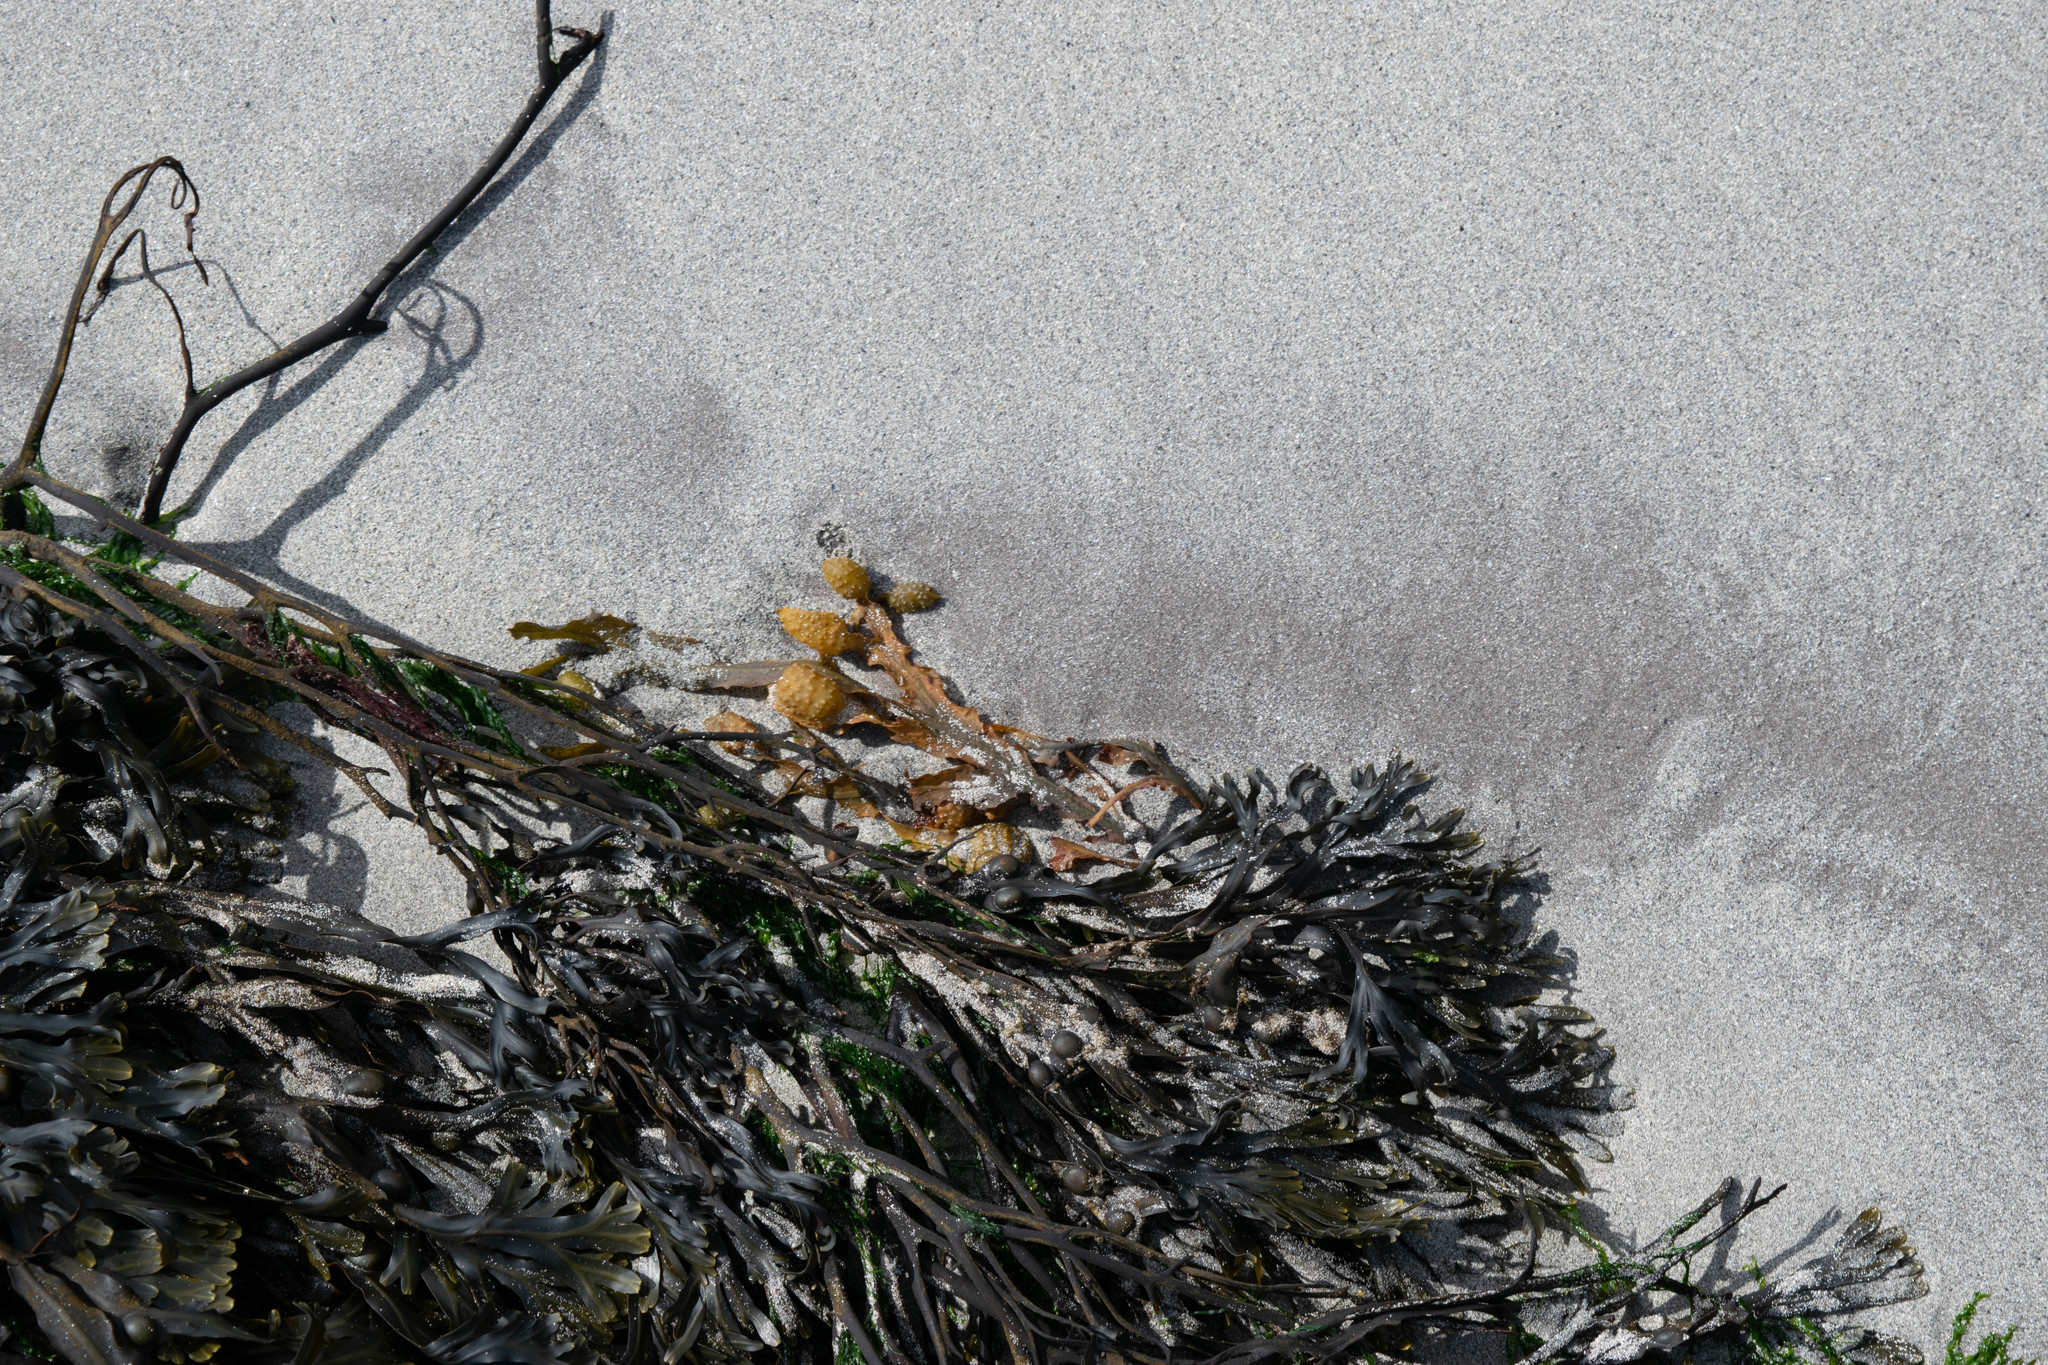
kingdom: Chromista
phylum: Ochrophyta
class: Phaeophyceae
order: Fucales
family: Fucaceae
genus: Fucus
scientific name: Fucus vesiculosus
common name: Bladder wrack
